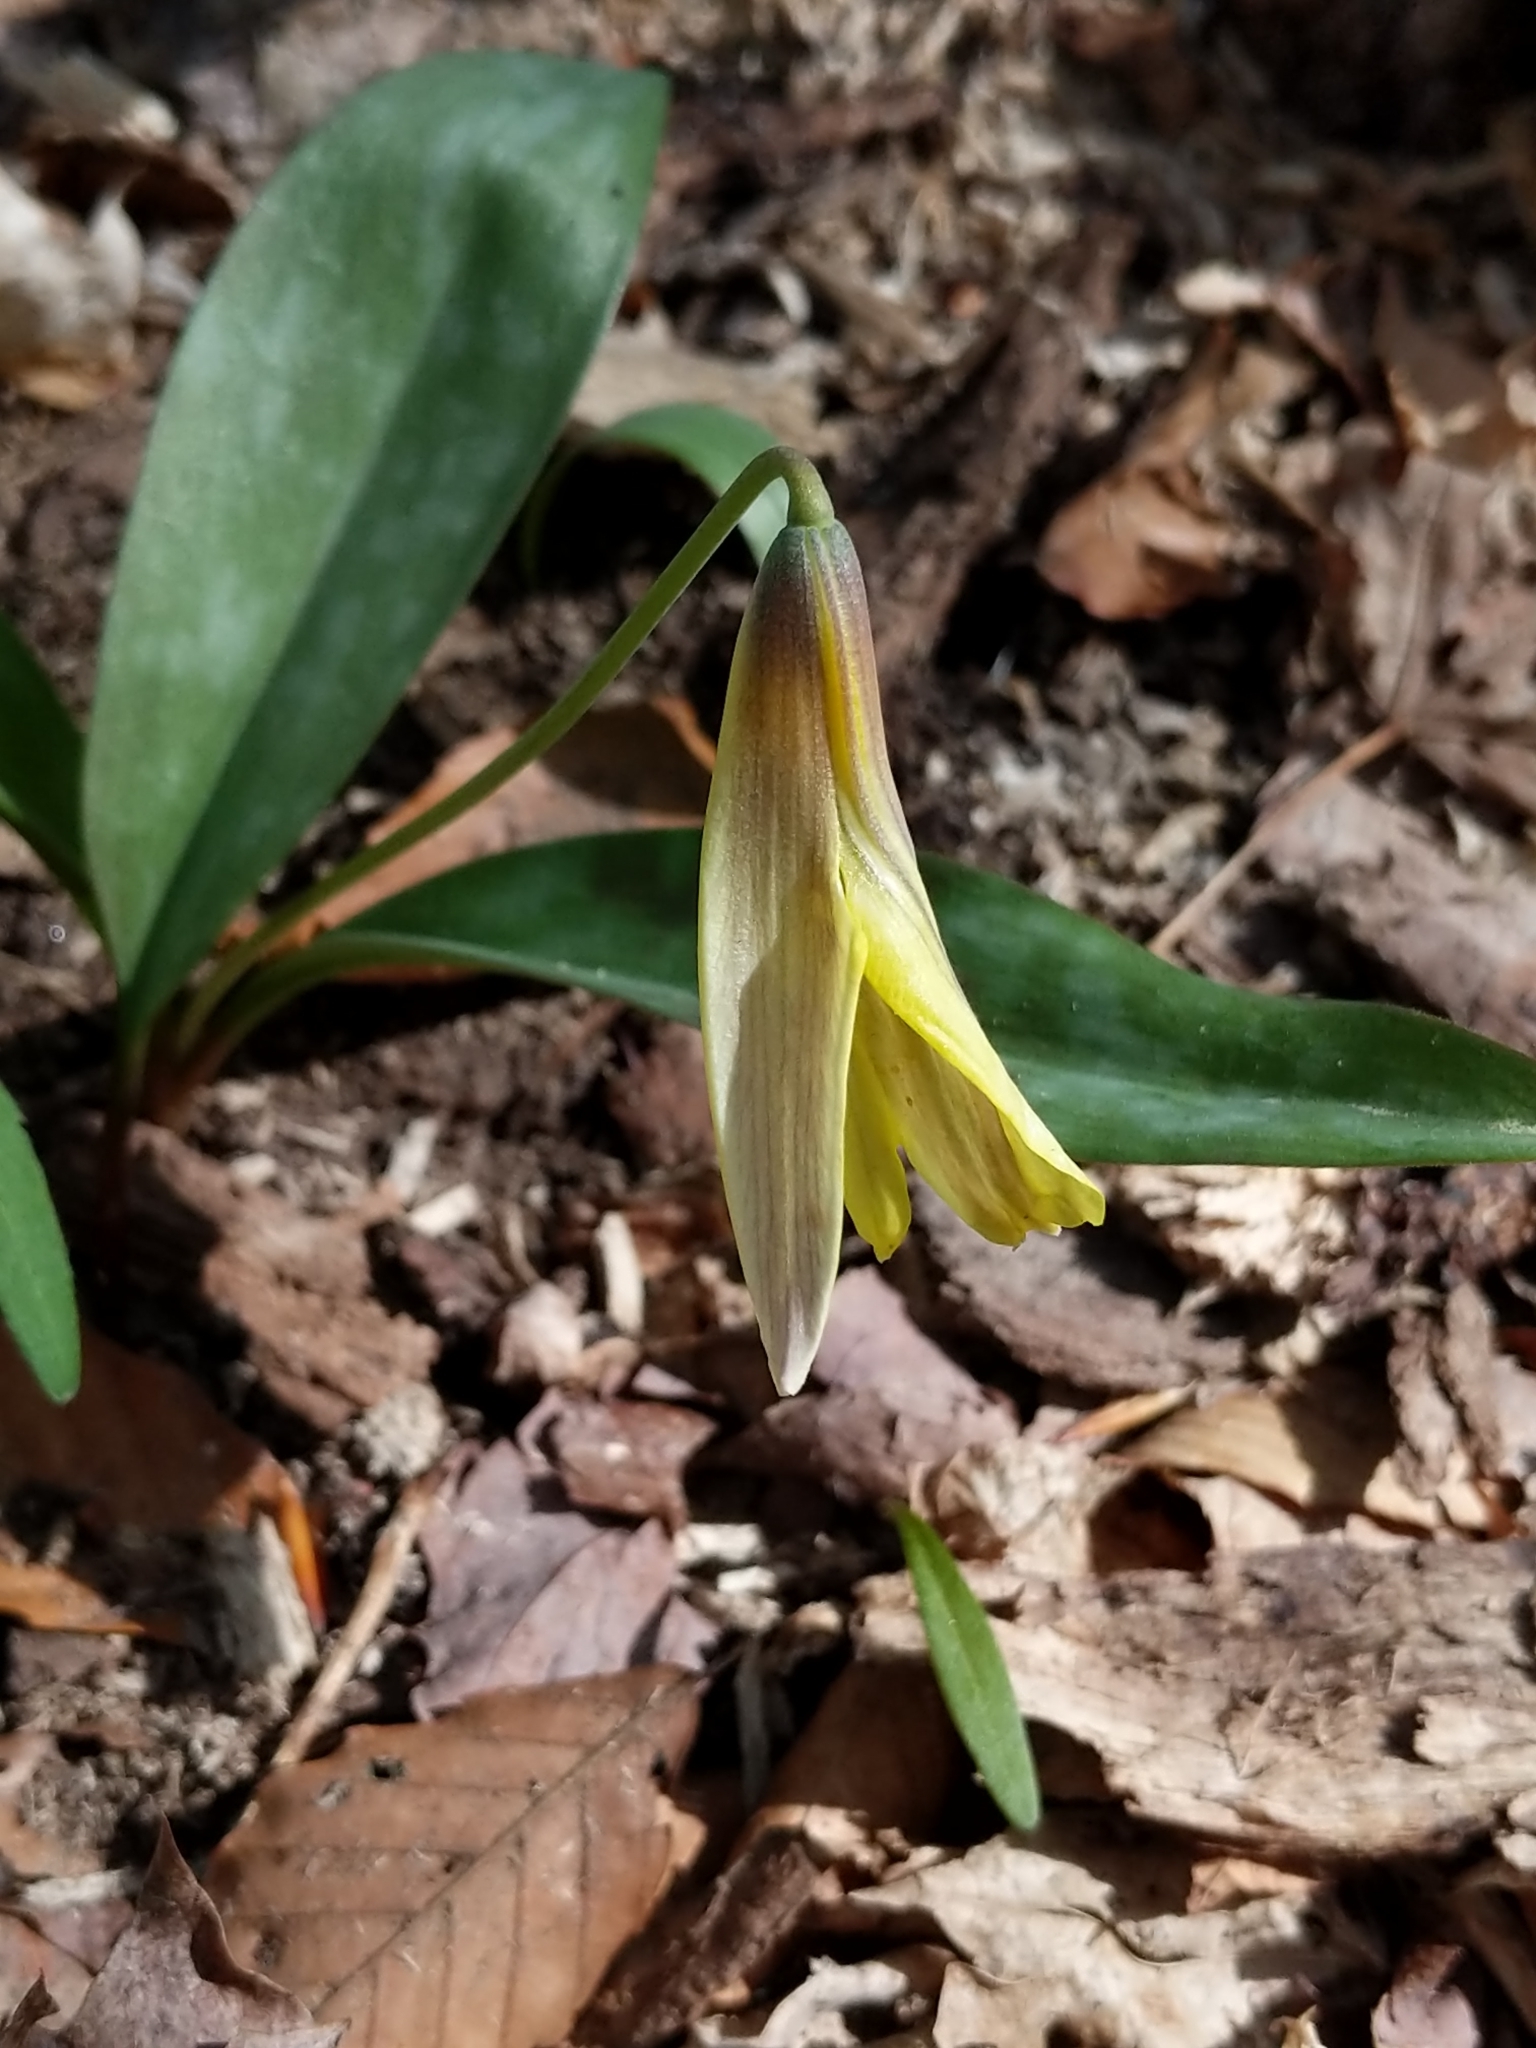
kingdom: Plantae
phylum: Tracheophyta
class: Liliopsida
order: Liliales
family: Liliaceae
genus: Erythronium
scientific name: Erythronium americanum
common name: Yellow adder's-tongue
